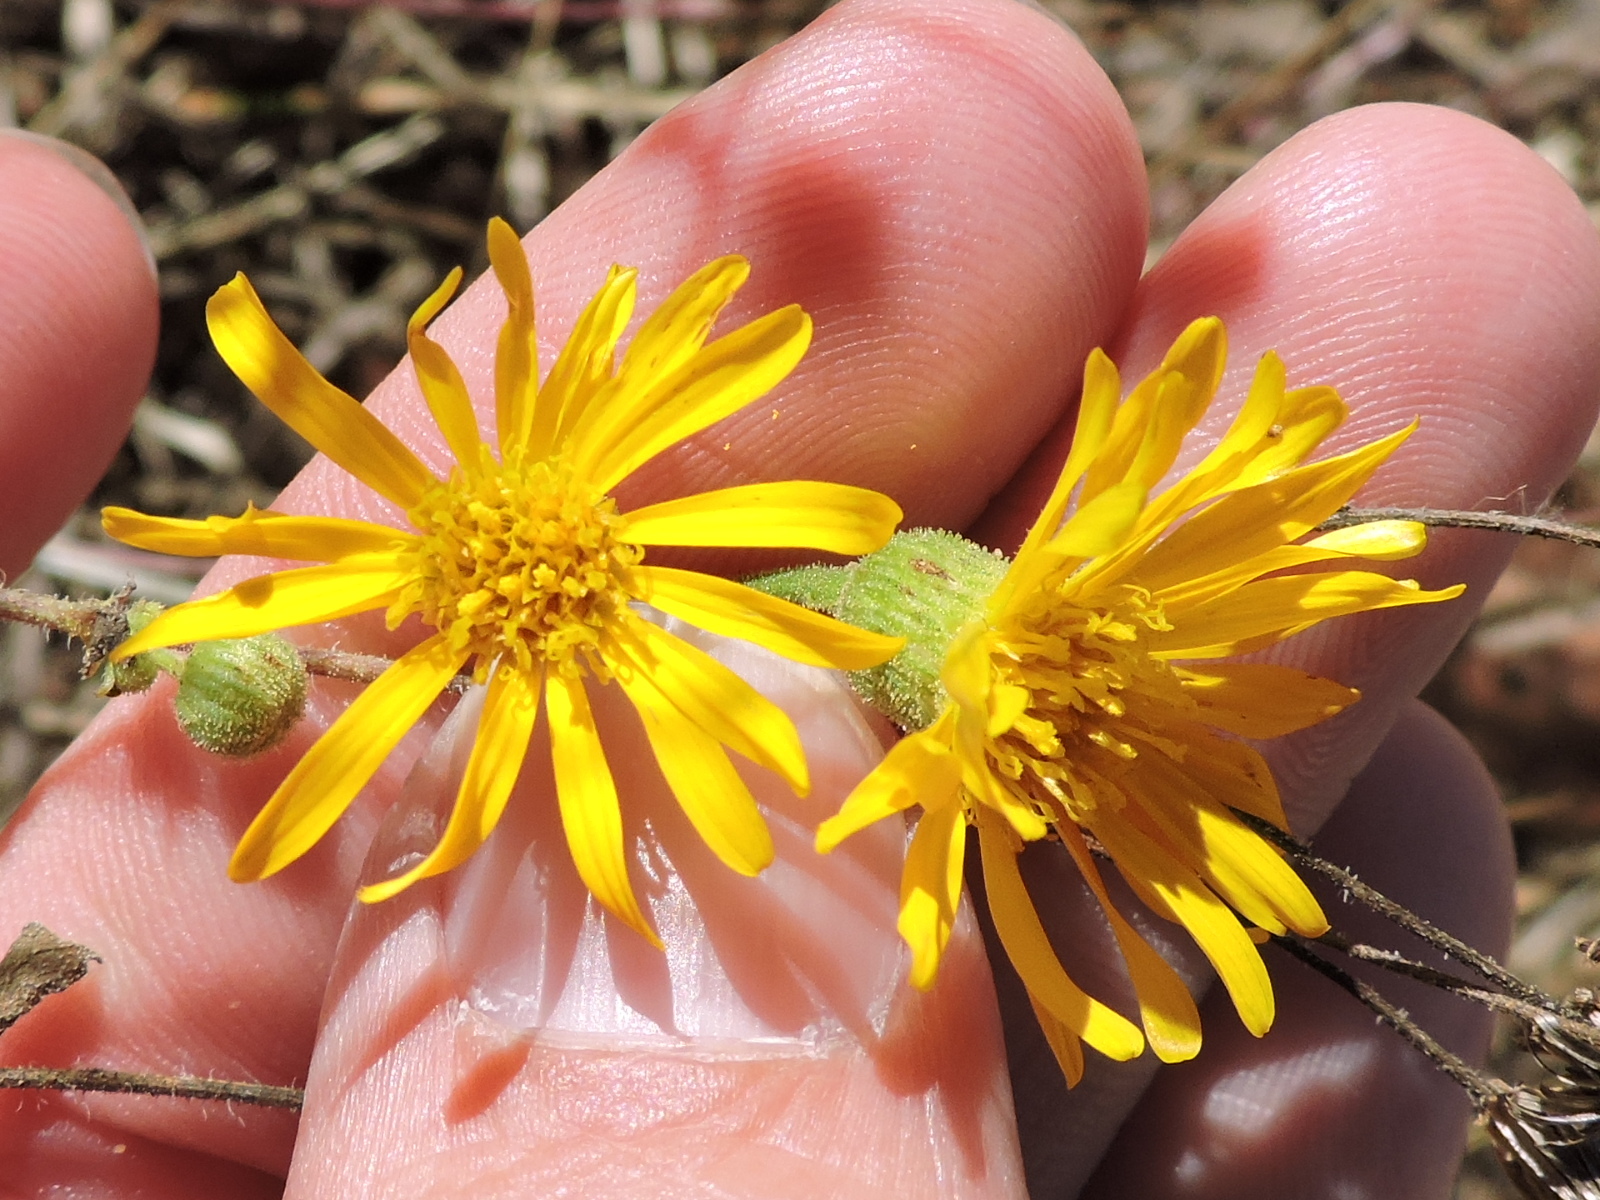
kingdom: Plantae
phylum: Tracheophyta
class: Magnoliopsida
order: Asterales
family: Asteraceae
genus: Heterotheca
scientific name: Heterotheca subaxillaris
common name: Camphorweed
